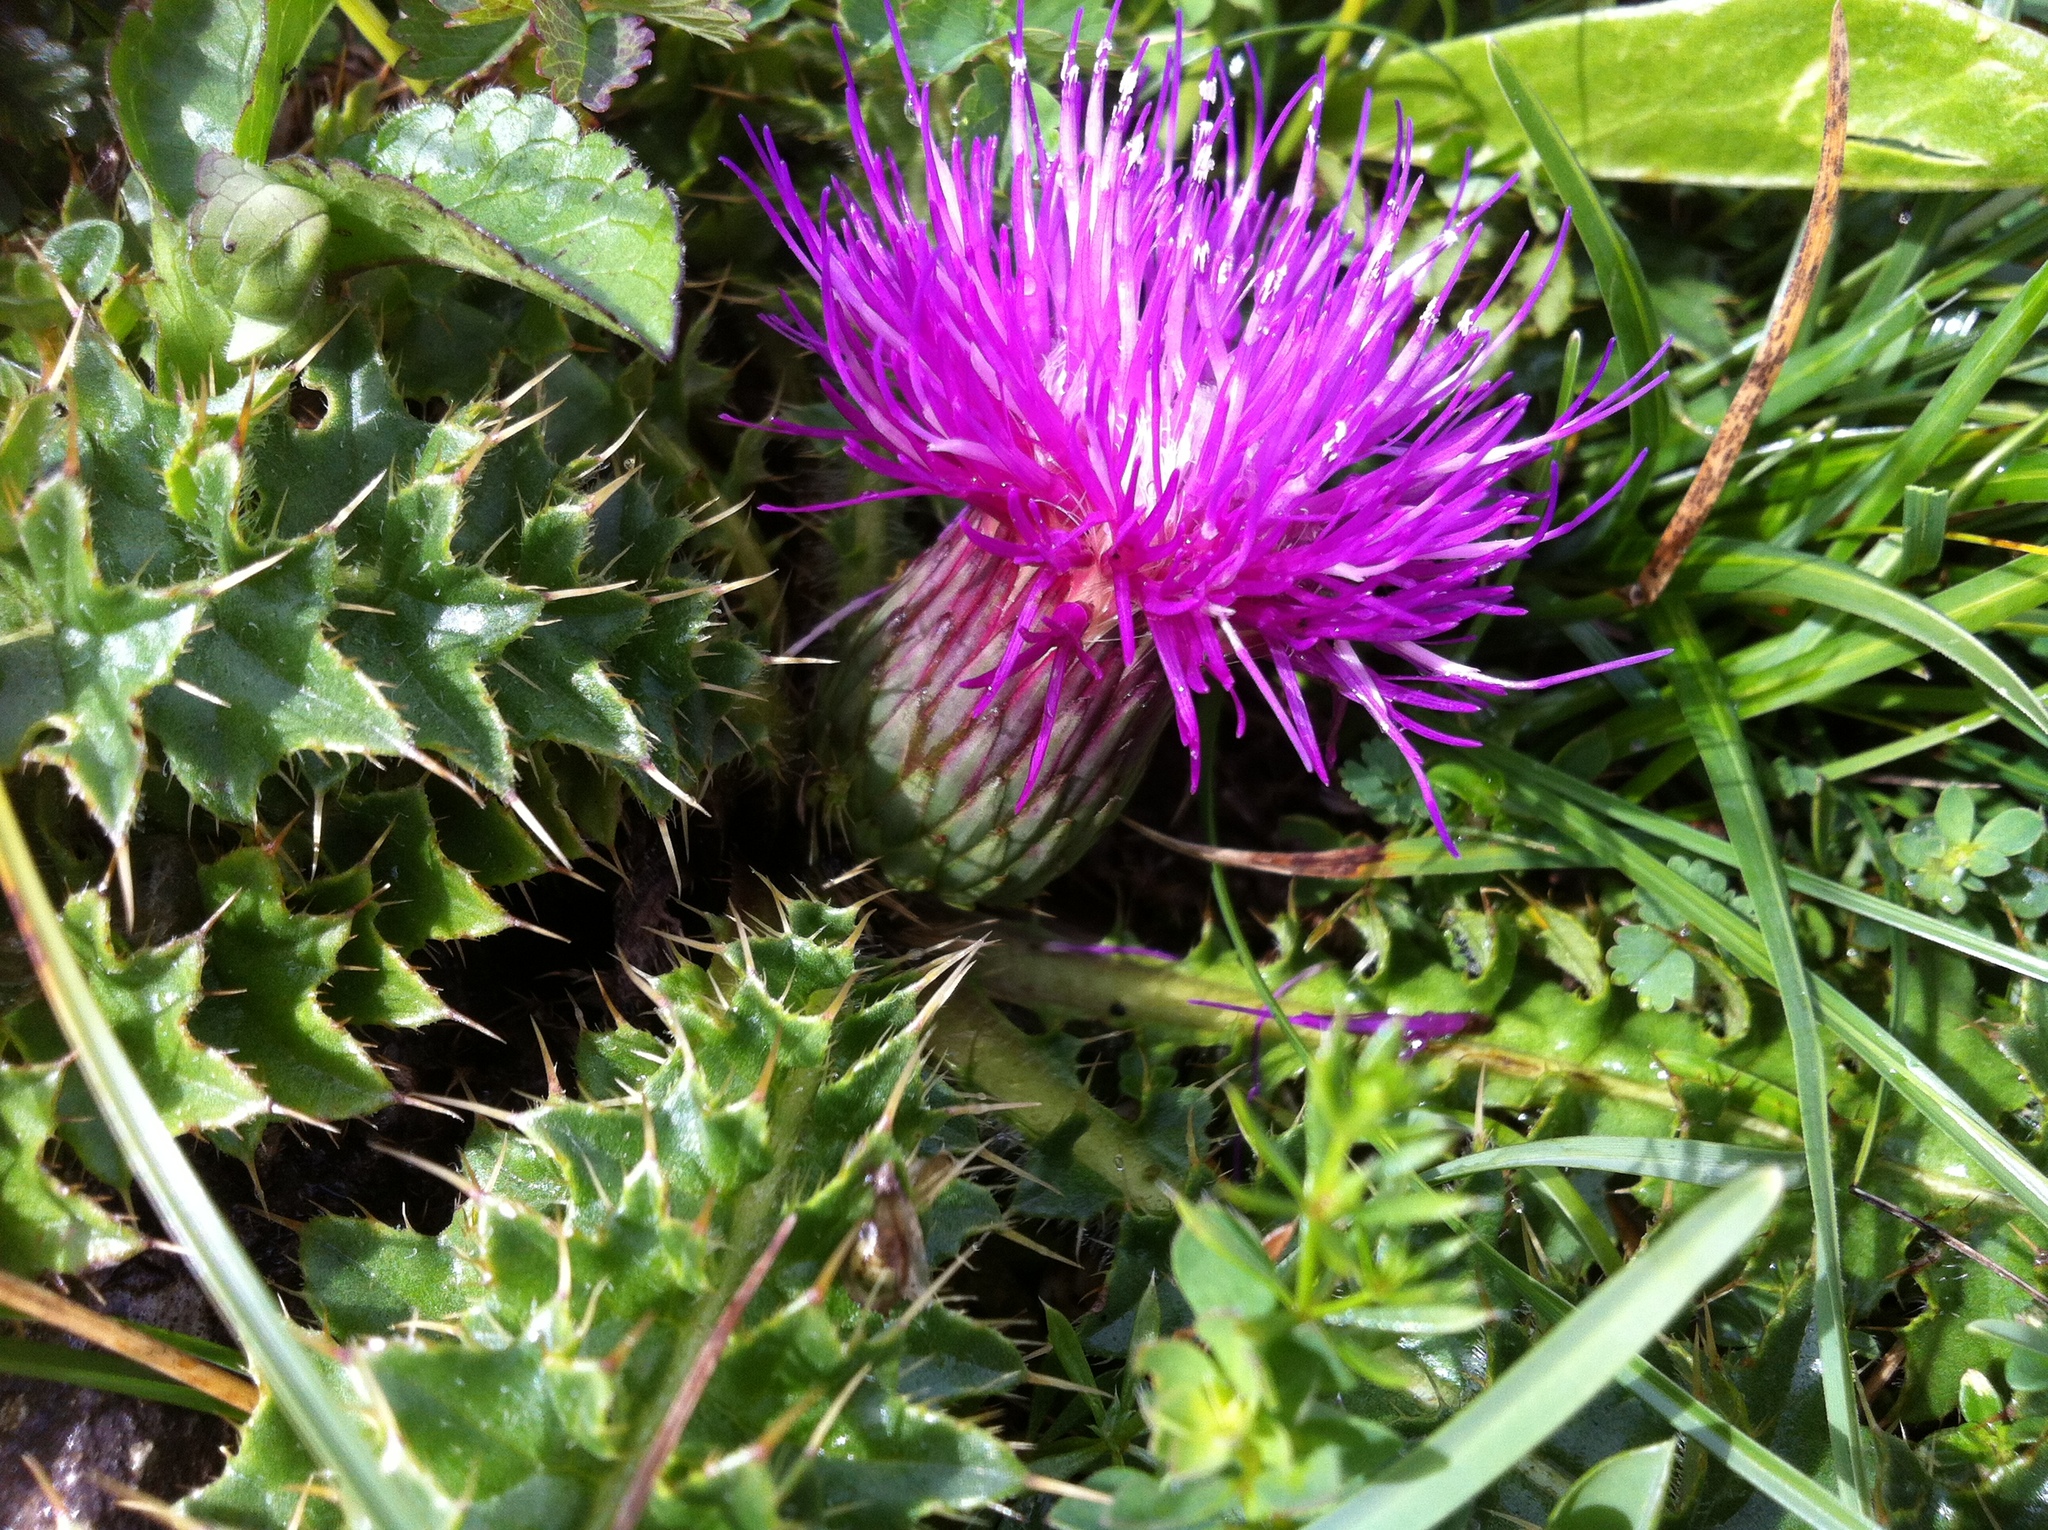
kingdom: Plantae
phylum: Tracheophyta
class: Magnoliopsida
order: Asterales
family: Asteraceae
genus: Cirsium
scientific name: Cirsium acaulon
